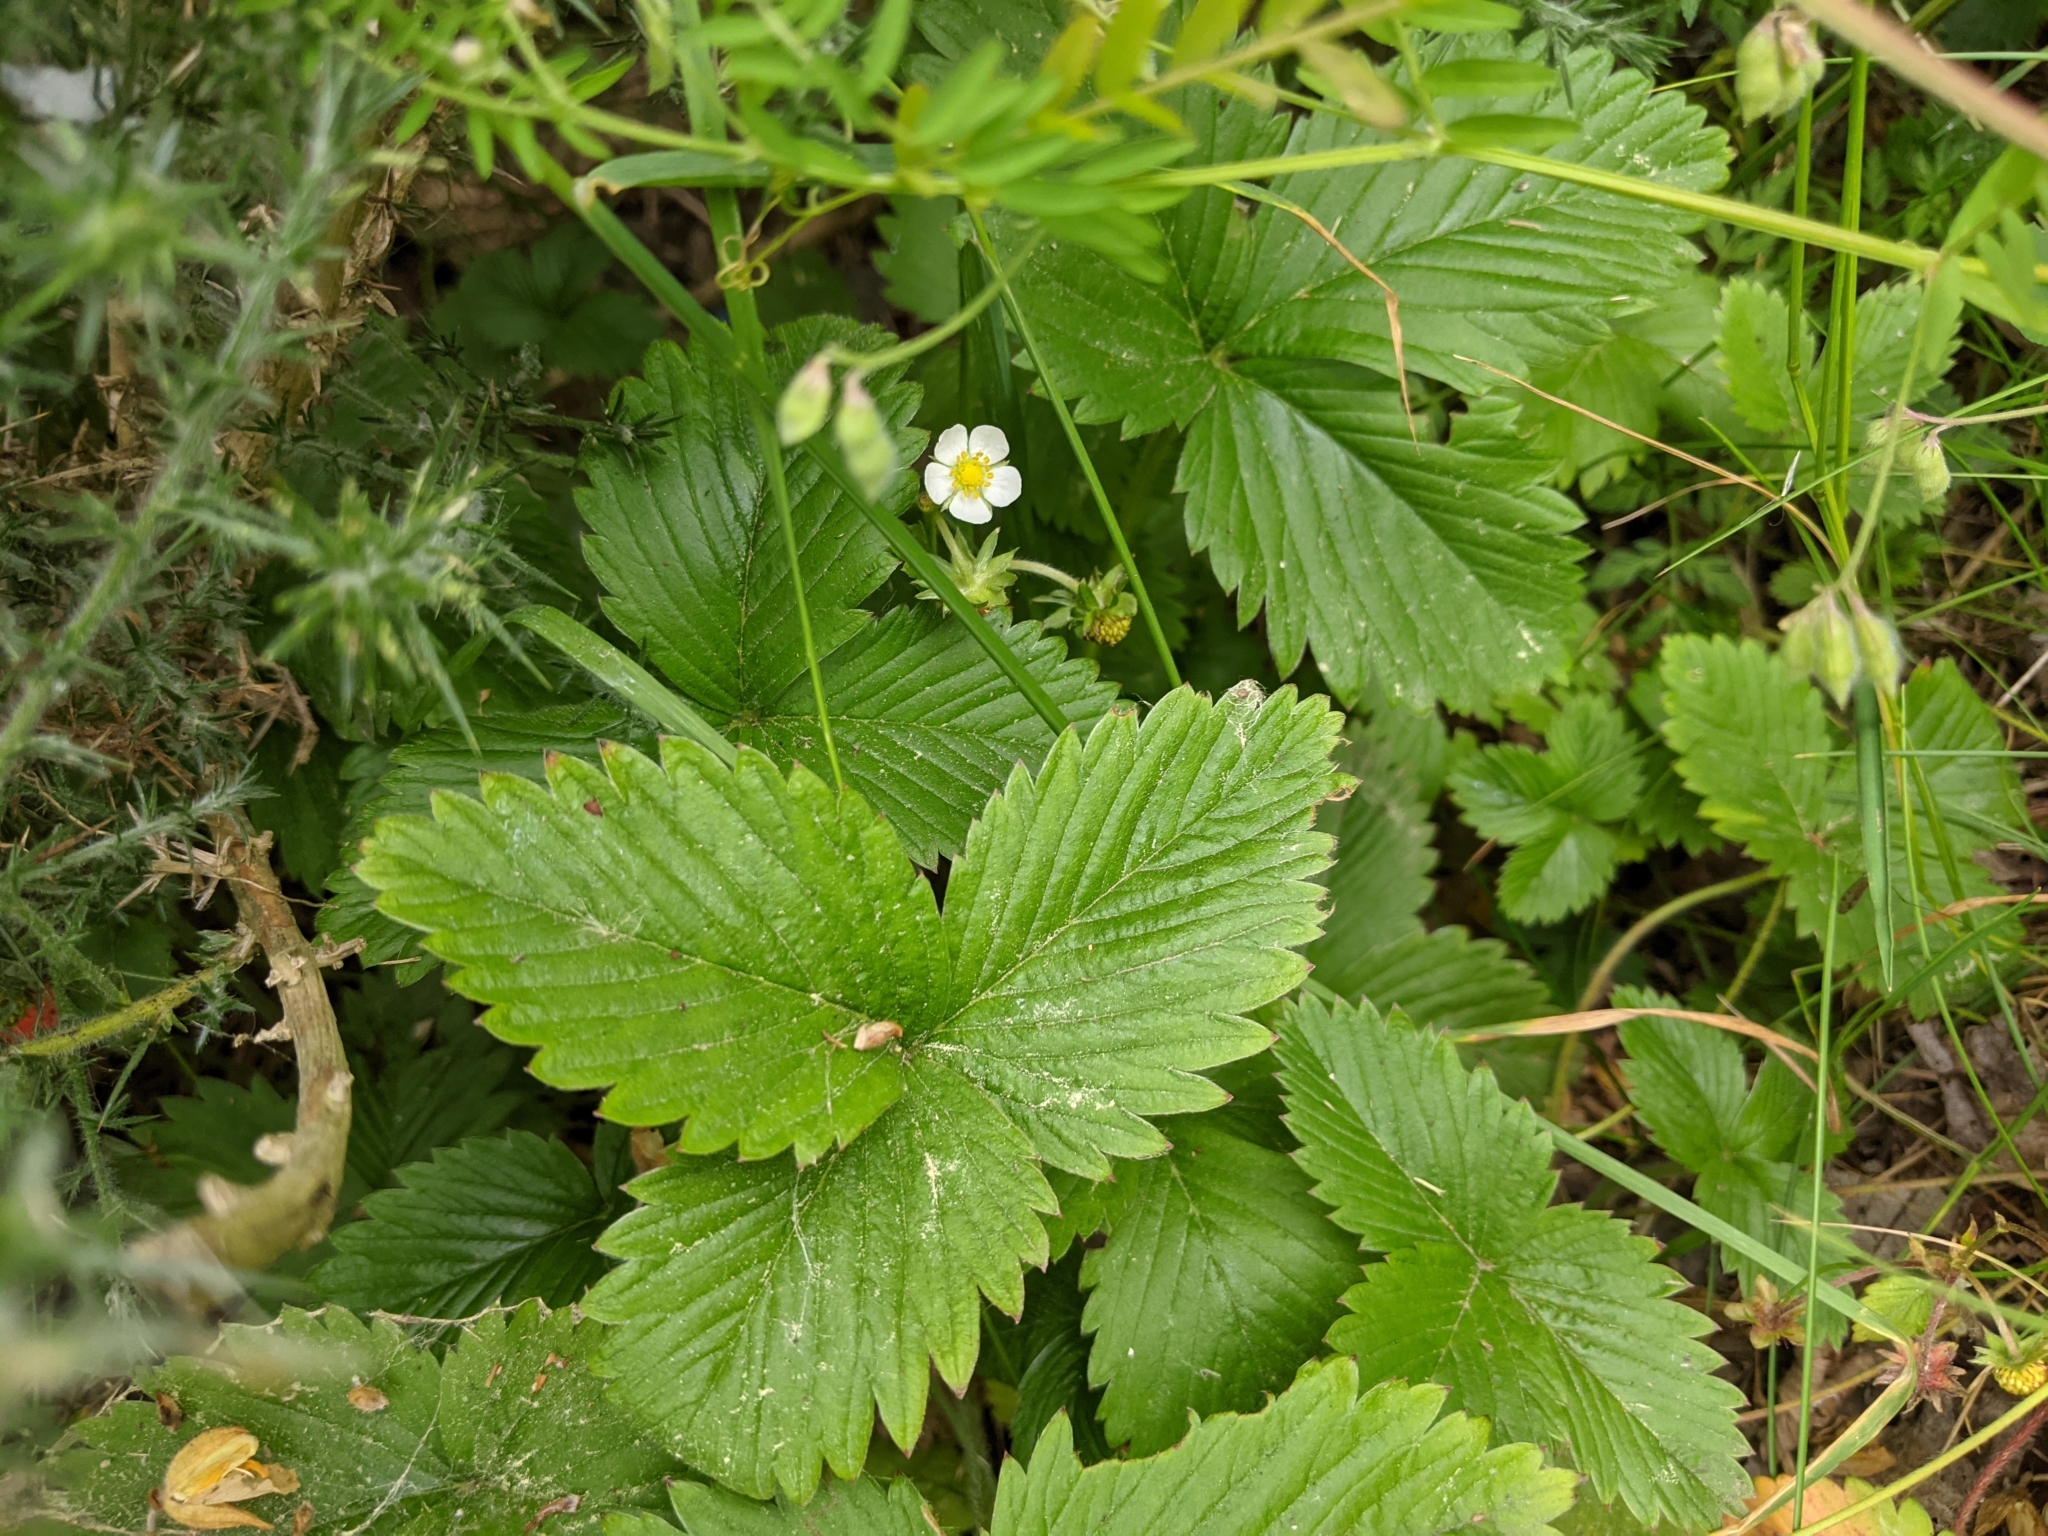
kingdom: Plantae
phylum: Tracheophyta
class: Magnoliopsida
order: Rosales
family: Rosaceae
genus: Fragaria
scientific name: Fragaria vesca
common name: Wild strawberry
